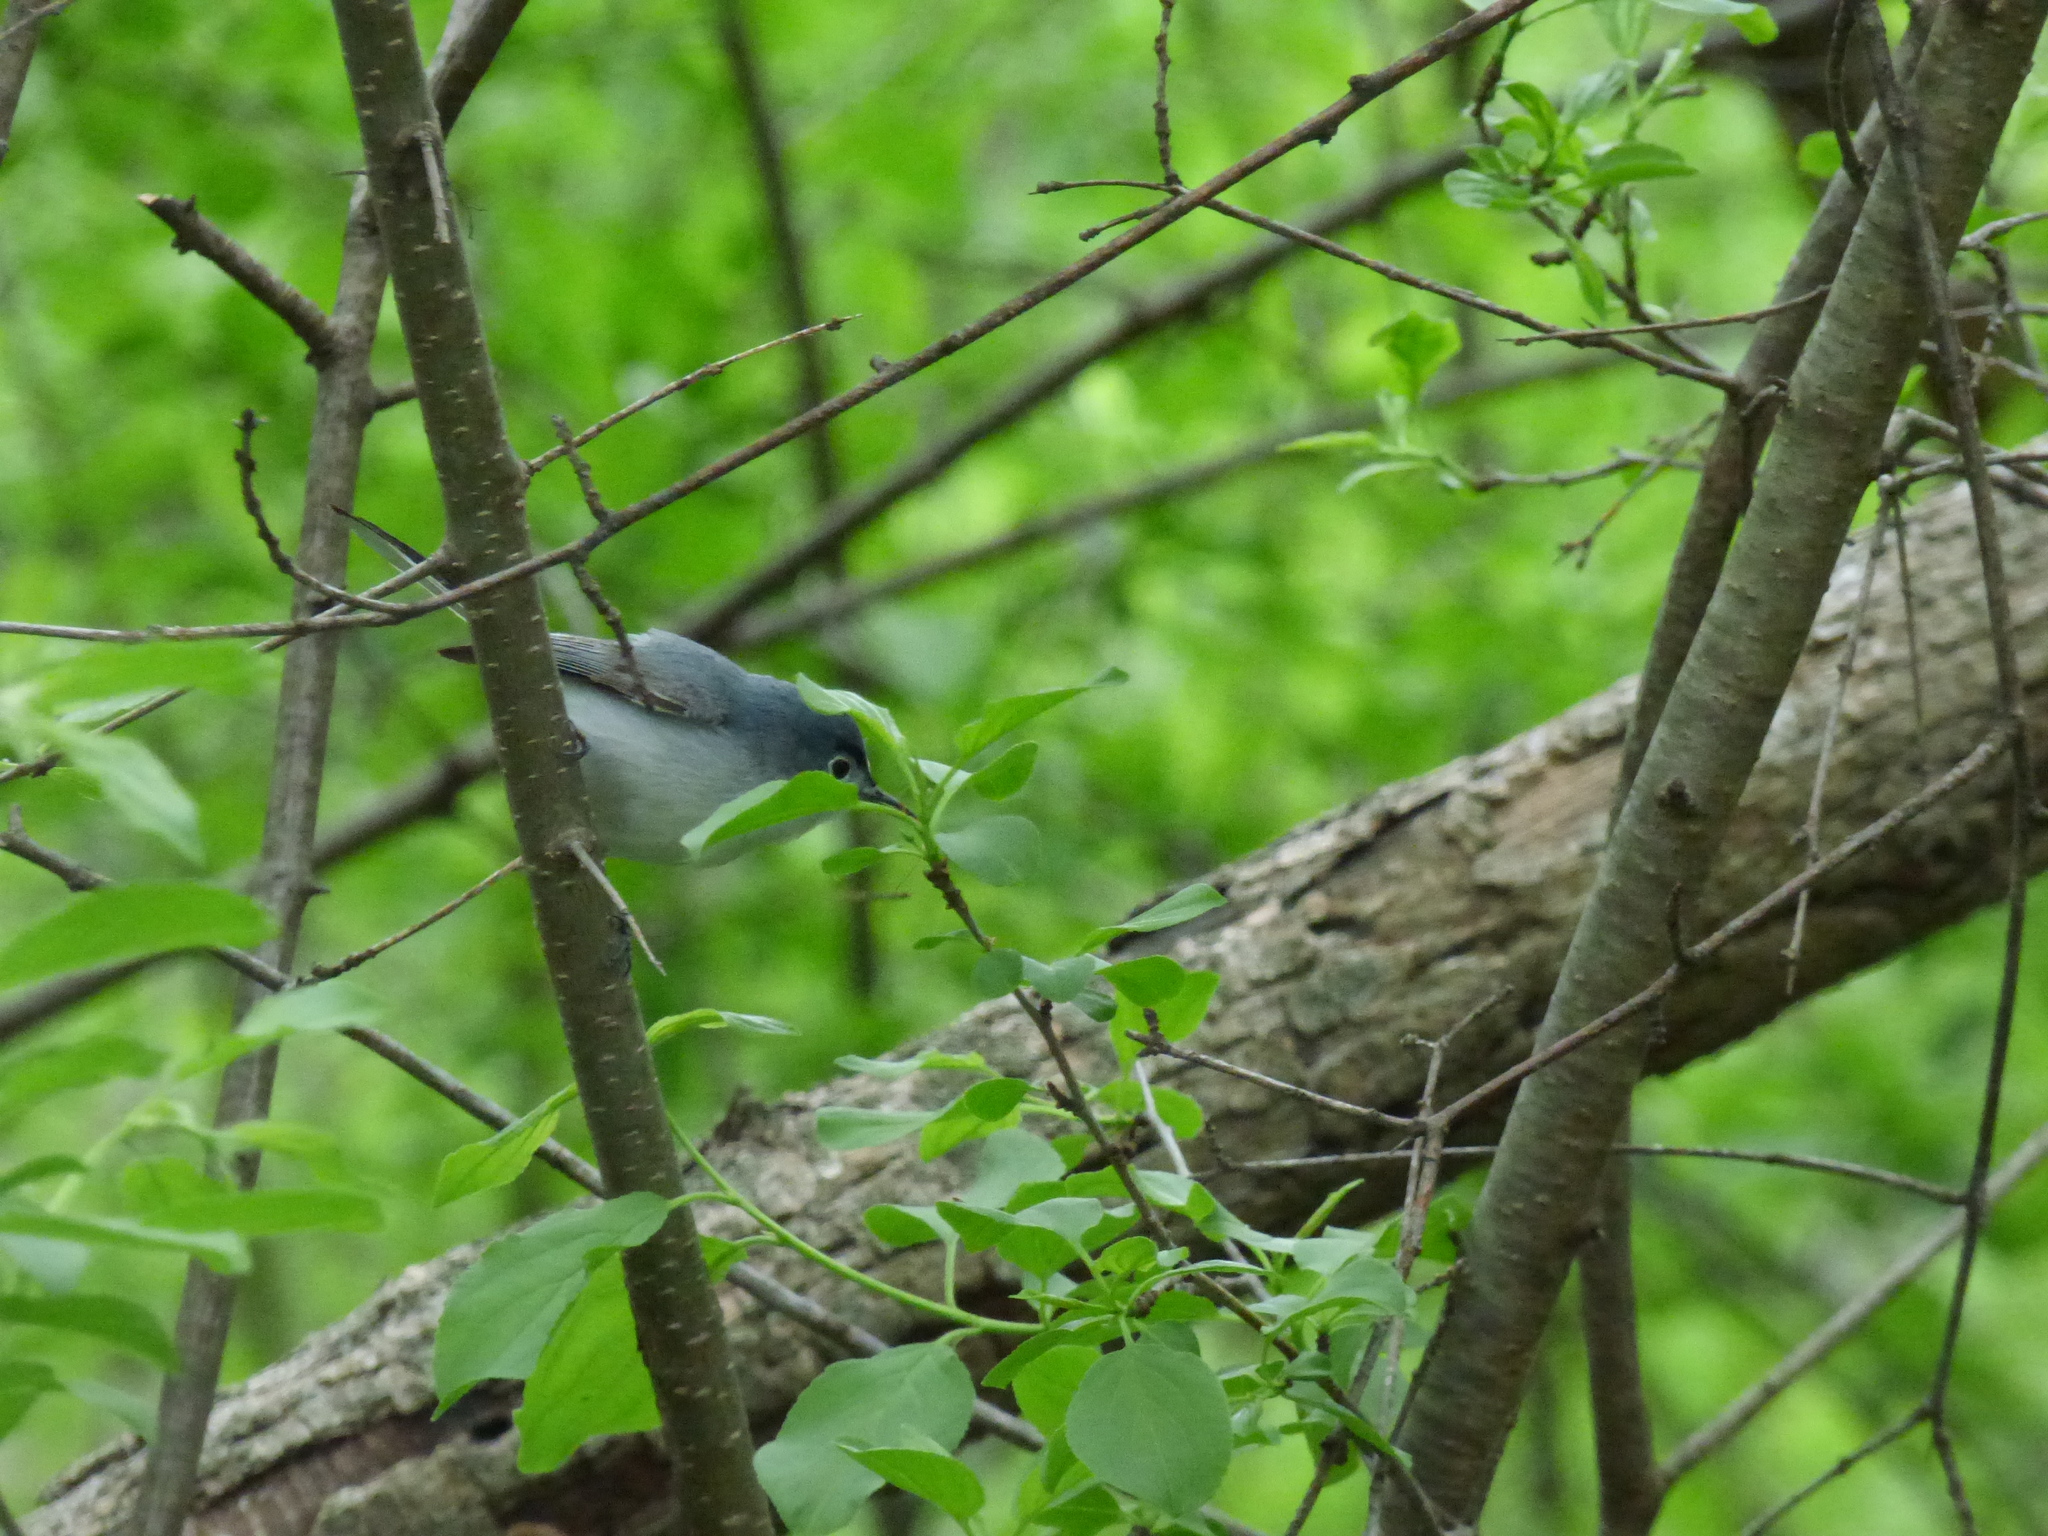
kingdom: Animalia
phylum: Chordata
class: Aves
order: Passeriformes
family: Polioptilidae
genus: Polioptila
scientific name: Polioptila caerulea
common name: Blue-gray gnatcatcher
